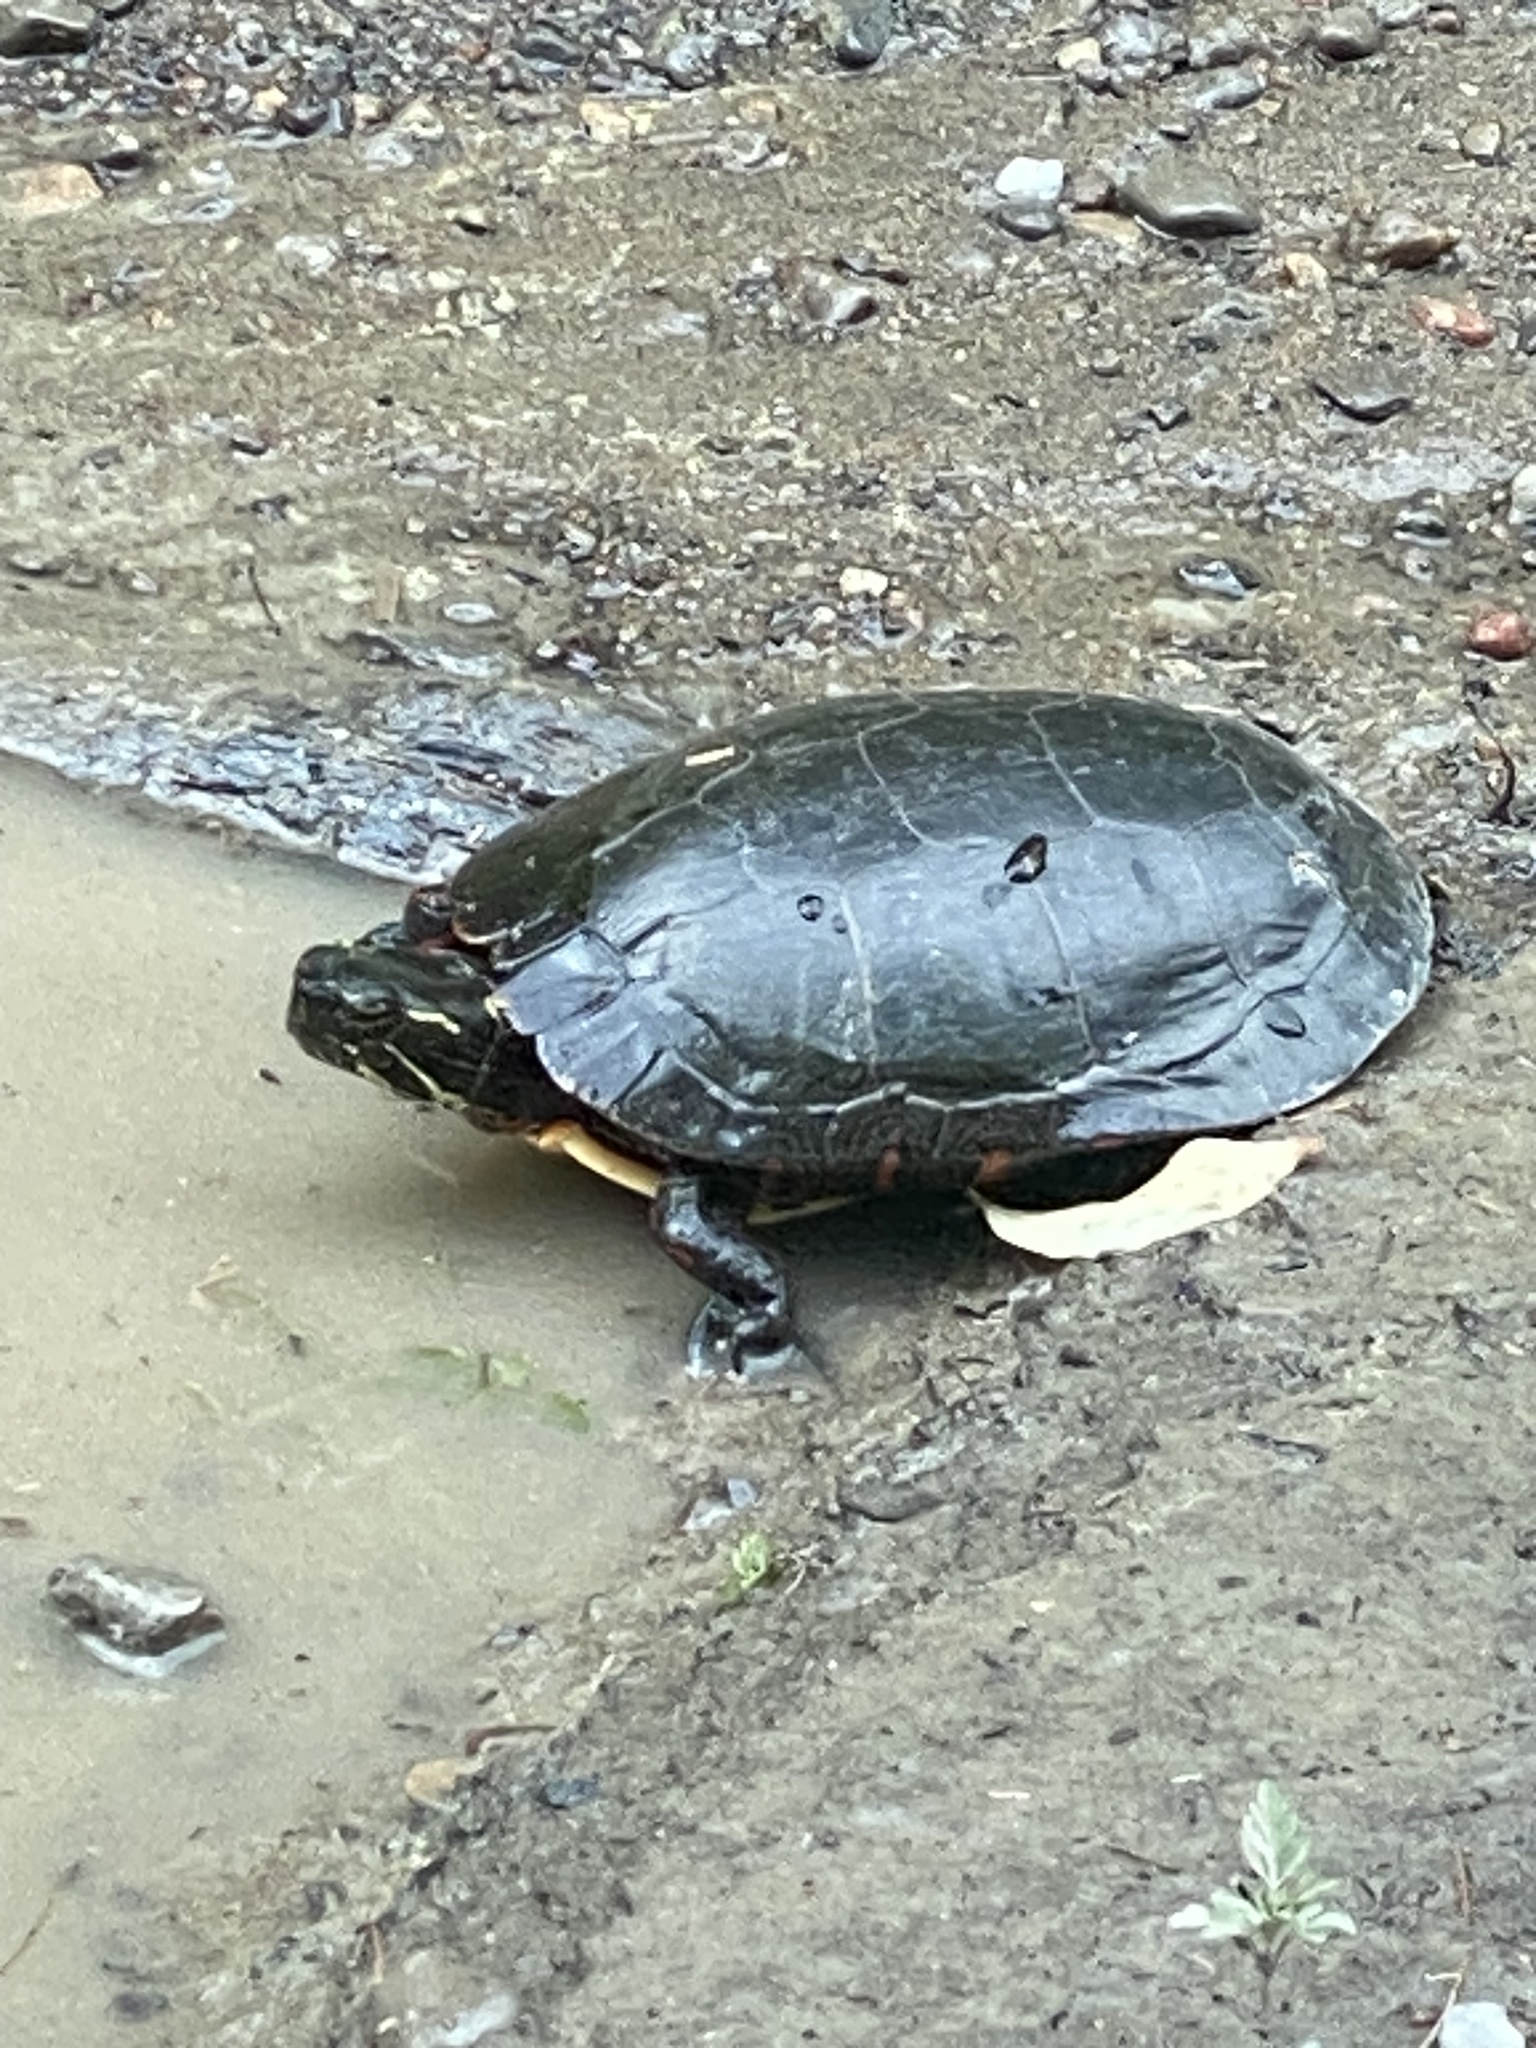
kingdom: Animalia
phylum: Chordata
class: Testudines
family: Emydidae
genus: Chrysemys
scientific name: Chrysemys picta
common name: Painted turtle
